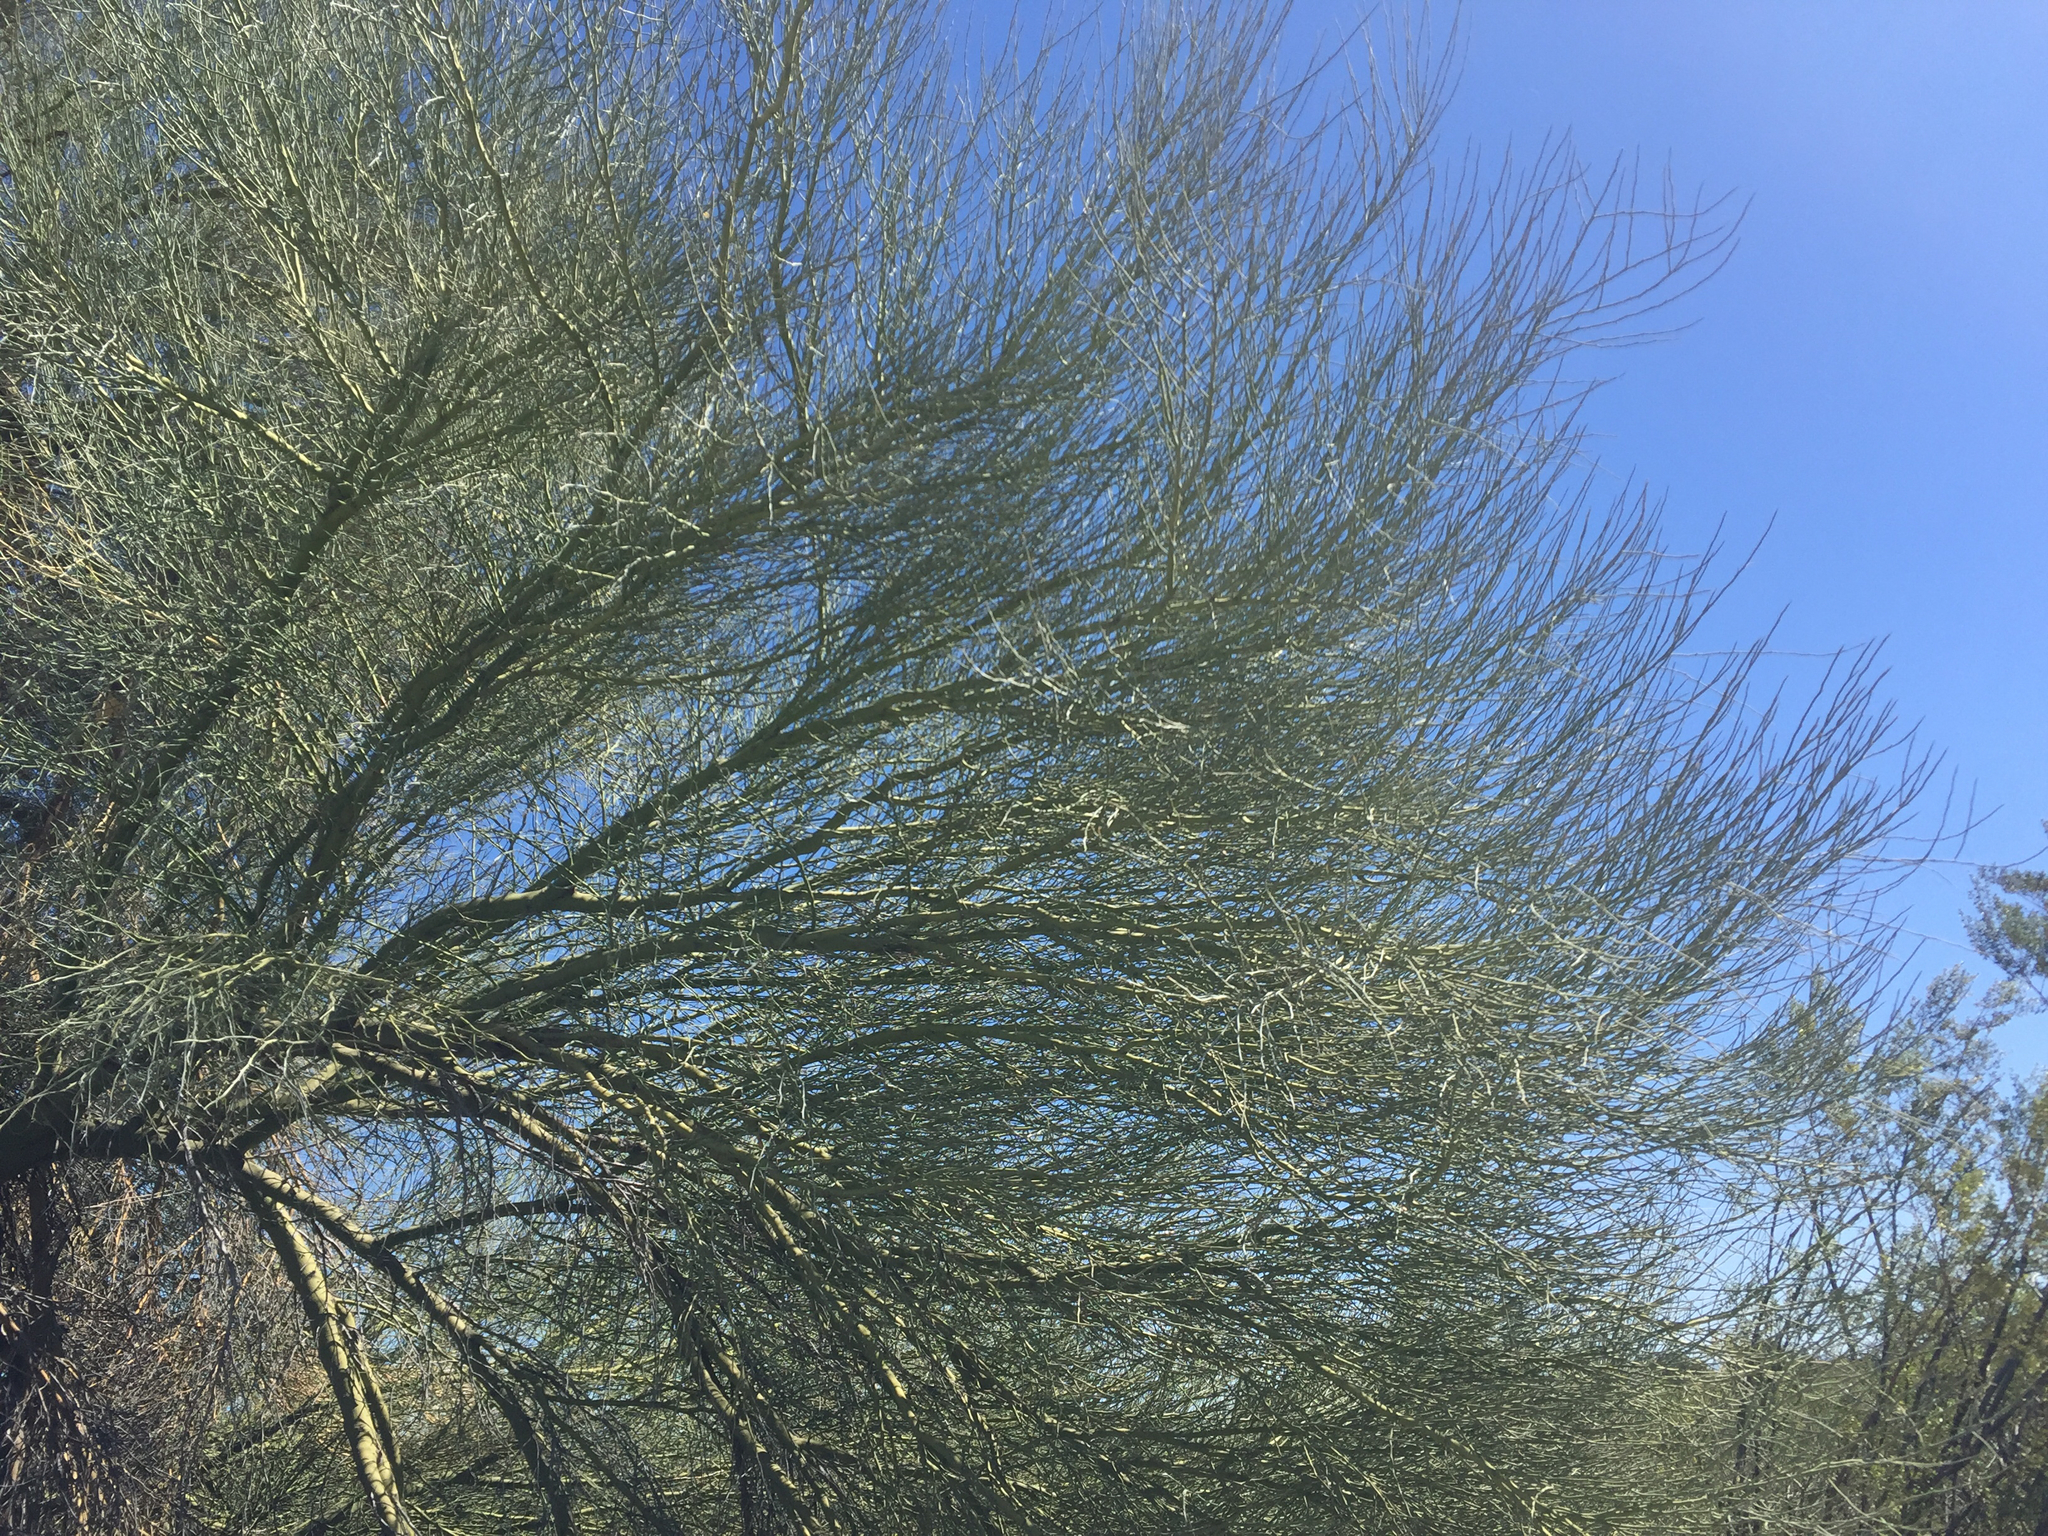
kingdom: Plantae
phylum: Tracheophyta
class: Magnoliopsida
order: Fabales
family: Fabaceae
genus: Parkinsonia
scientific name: Parkinsonia florida
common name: Blue paloverde
